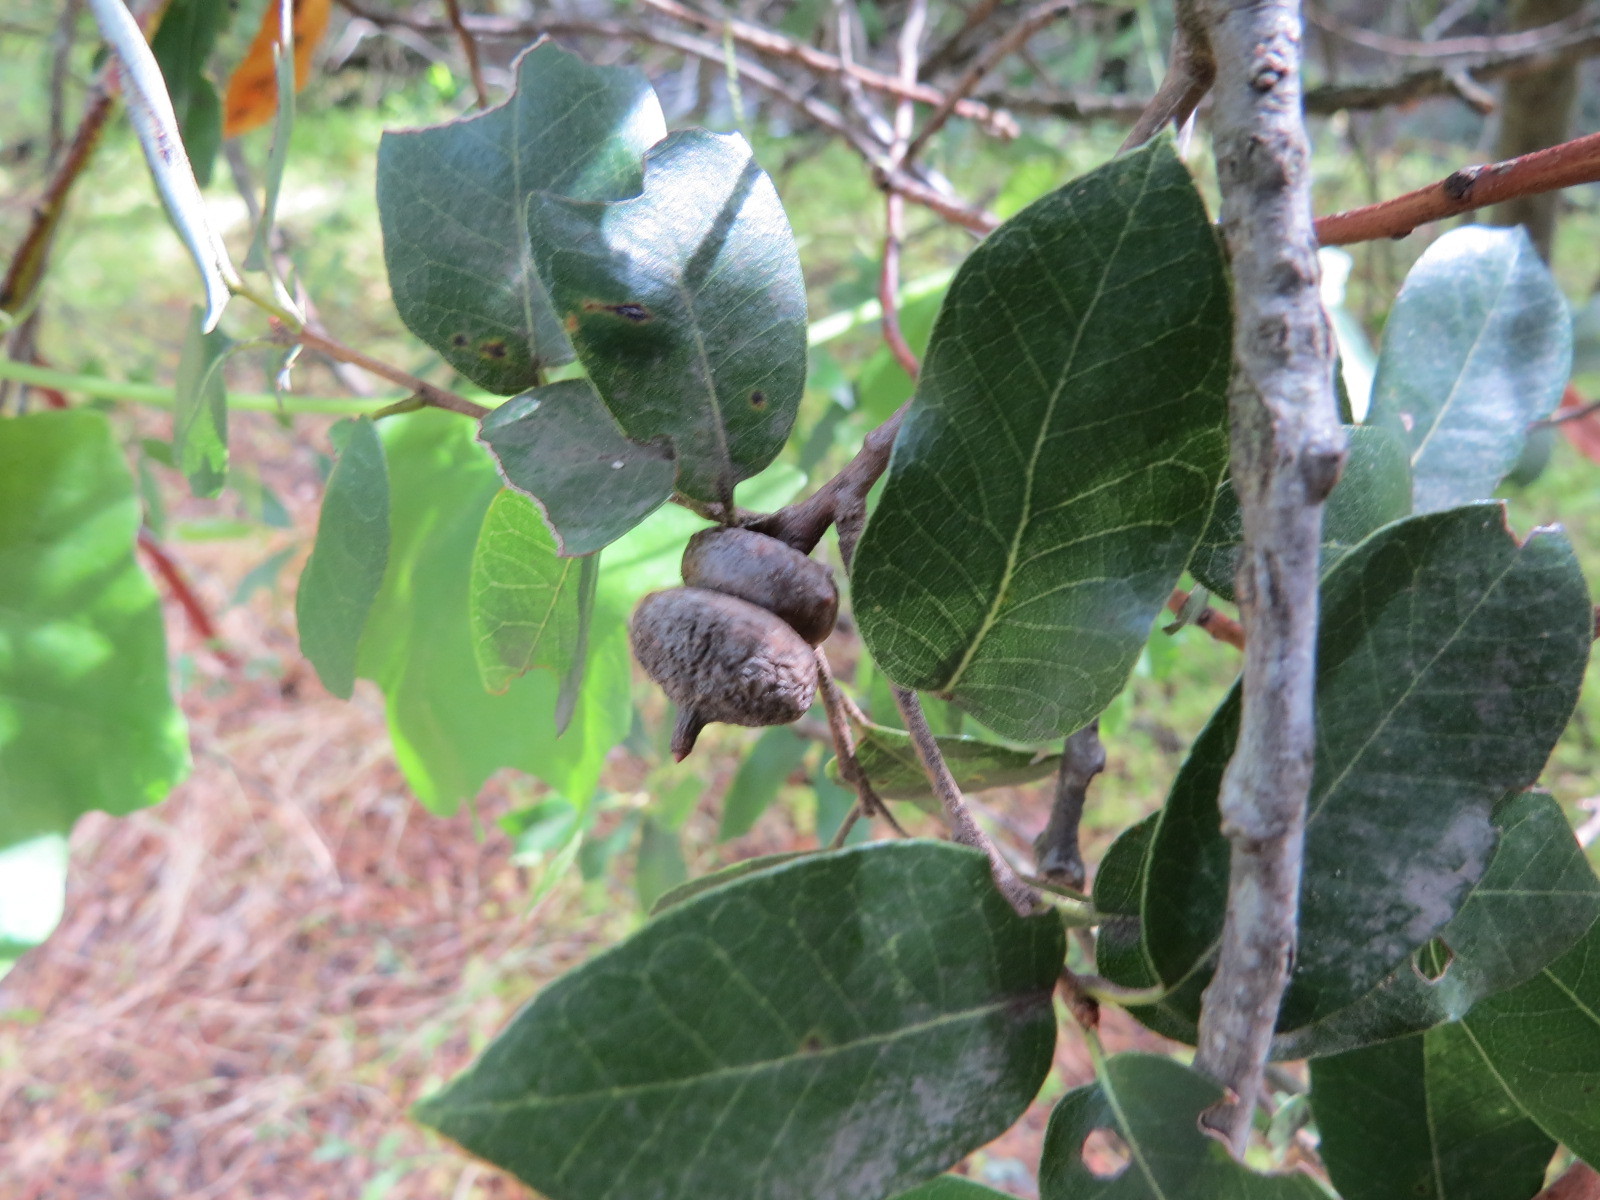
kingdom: Animalia
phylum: Arthropoda
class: Insecta
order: Hymenoptera
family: Cynipidae
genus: Heteroecus
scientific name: Heteroecus
